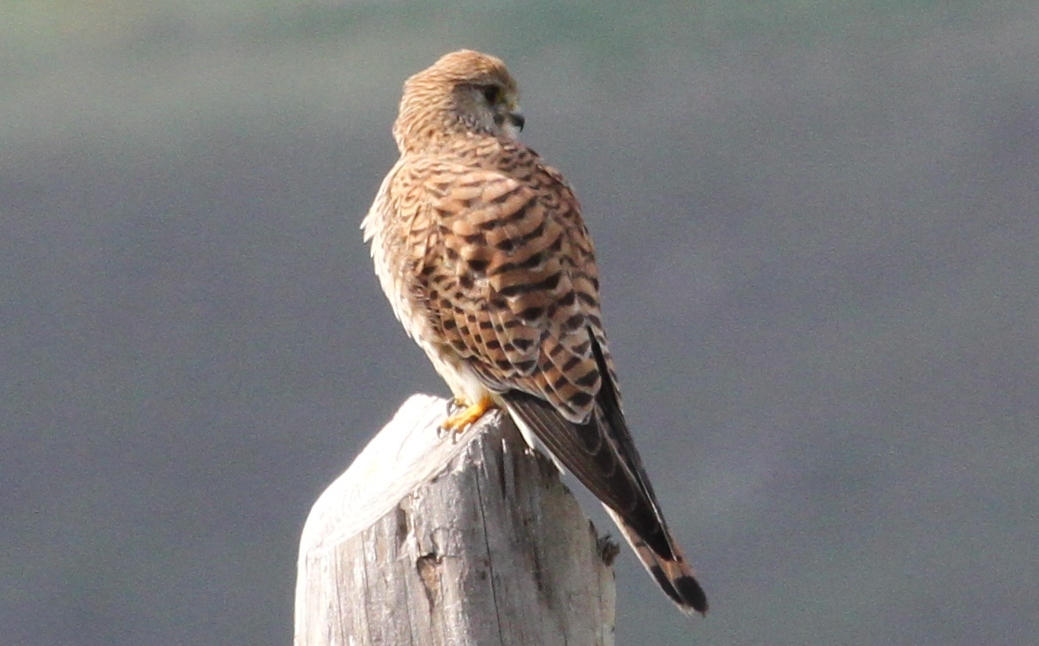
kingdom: Animalia
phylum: Chordata
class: Aves
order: Falconiformes
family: Falconidae
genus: Falco
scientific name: Falco tinnunculus
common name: Common kestrel
